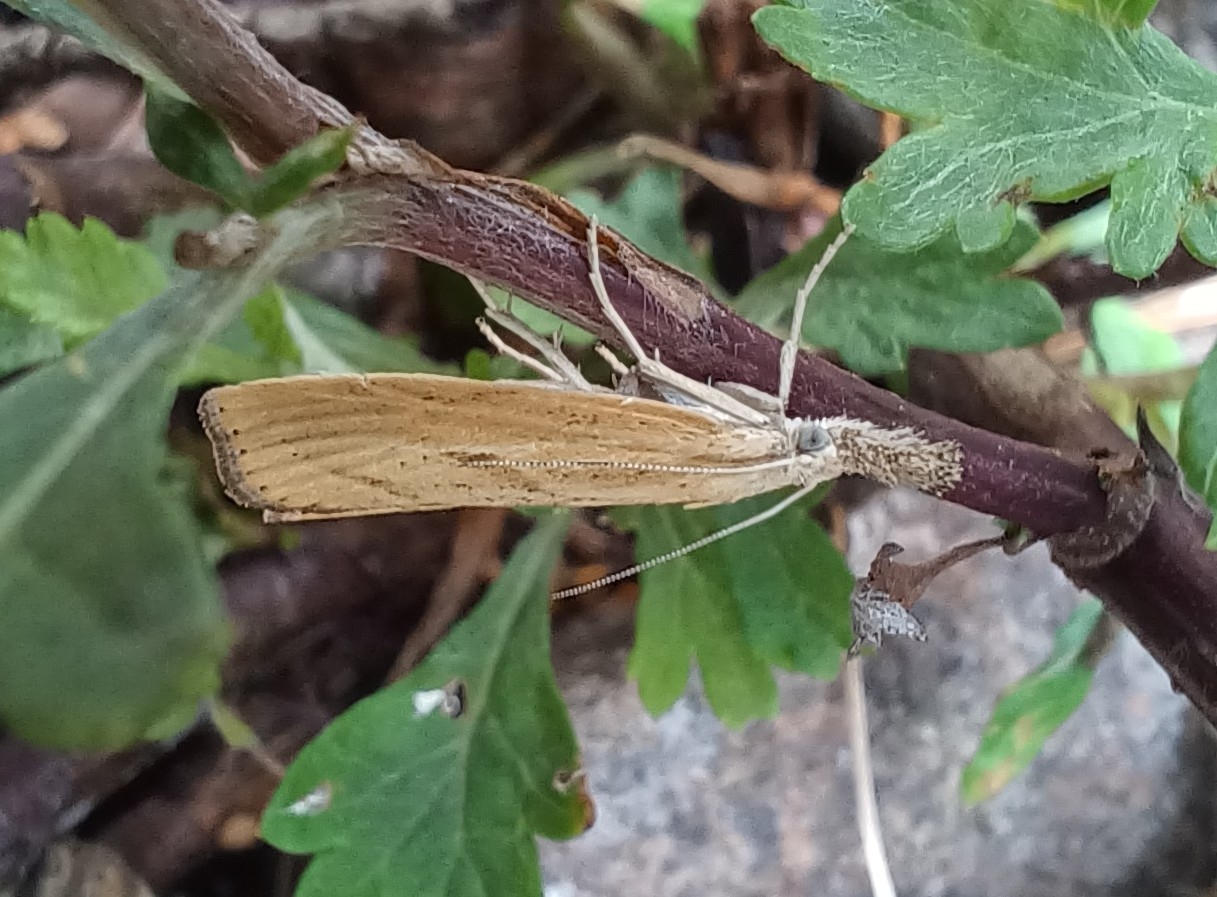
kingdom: Animalia
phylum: Arthropoda
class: Insecta
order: Lepidoptera
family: Crambidae
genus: Agriphila
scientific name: Agriphila inquinatella
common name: Barred grass-veneer
